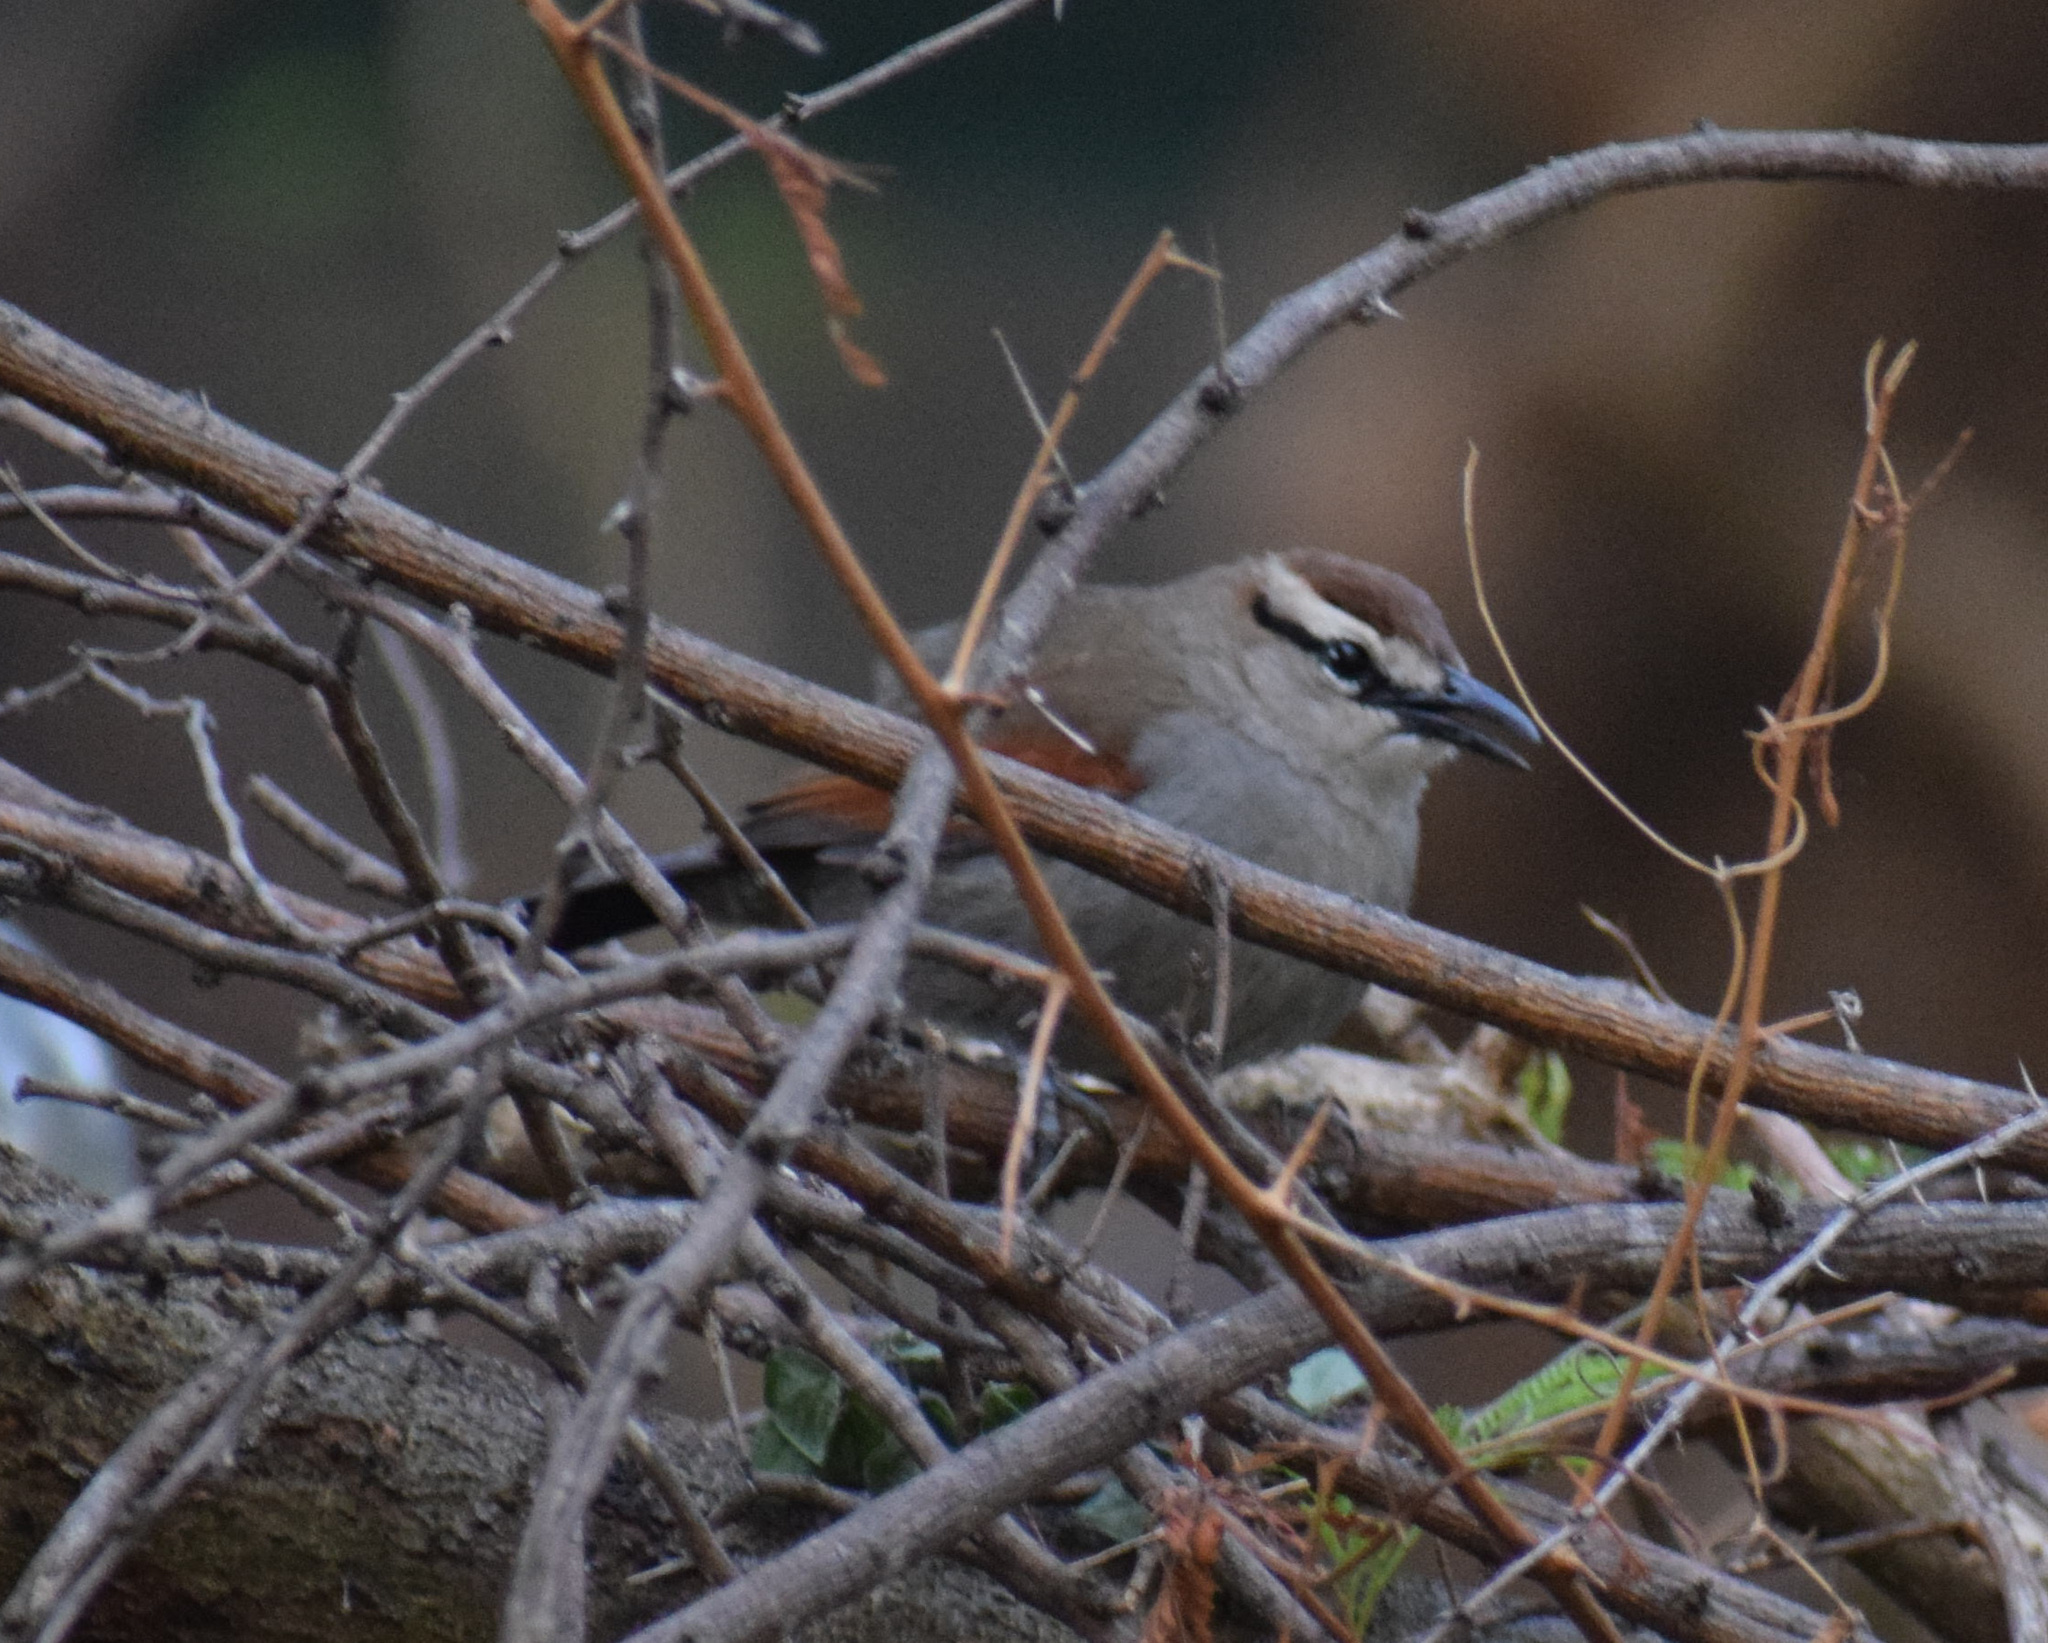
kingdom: Animalia
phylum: Chordata
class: Aves
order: Passeriformes
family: Malaconotidae
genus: Tchagra
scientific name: Tchagra tchagra
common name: Southern tchagra
